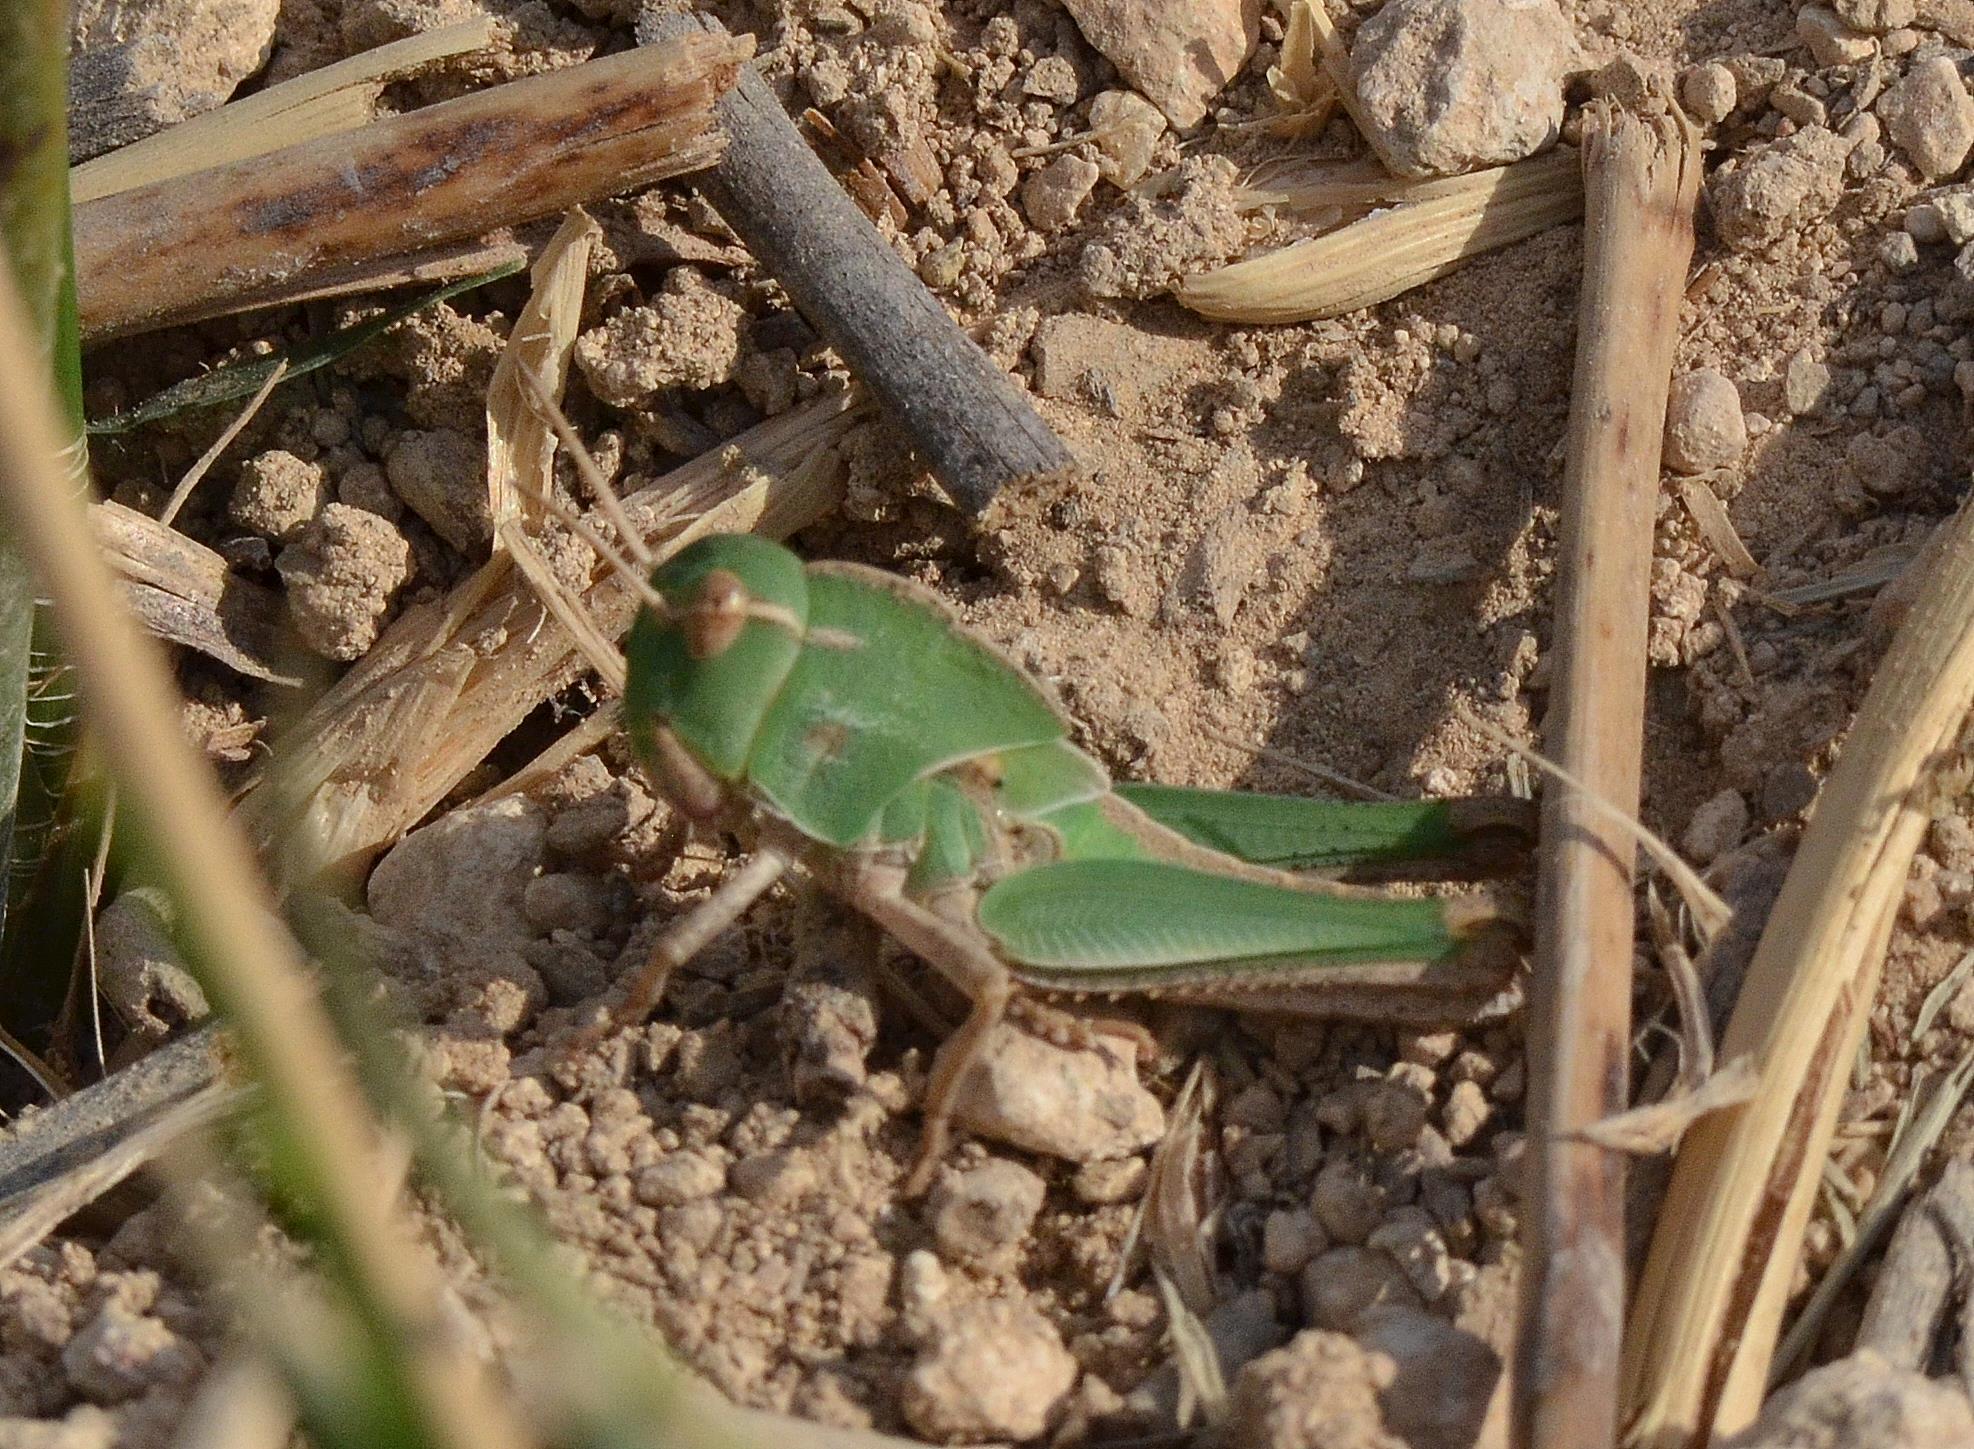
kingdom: Animalia
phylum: Arthropoda
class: Insecta
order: Orthoptera
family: Acrididae
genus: Locusta
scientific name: Locusta migratoria
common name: Migratory locust
